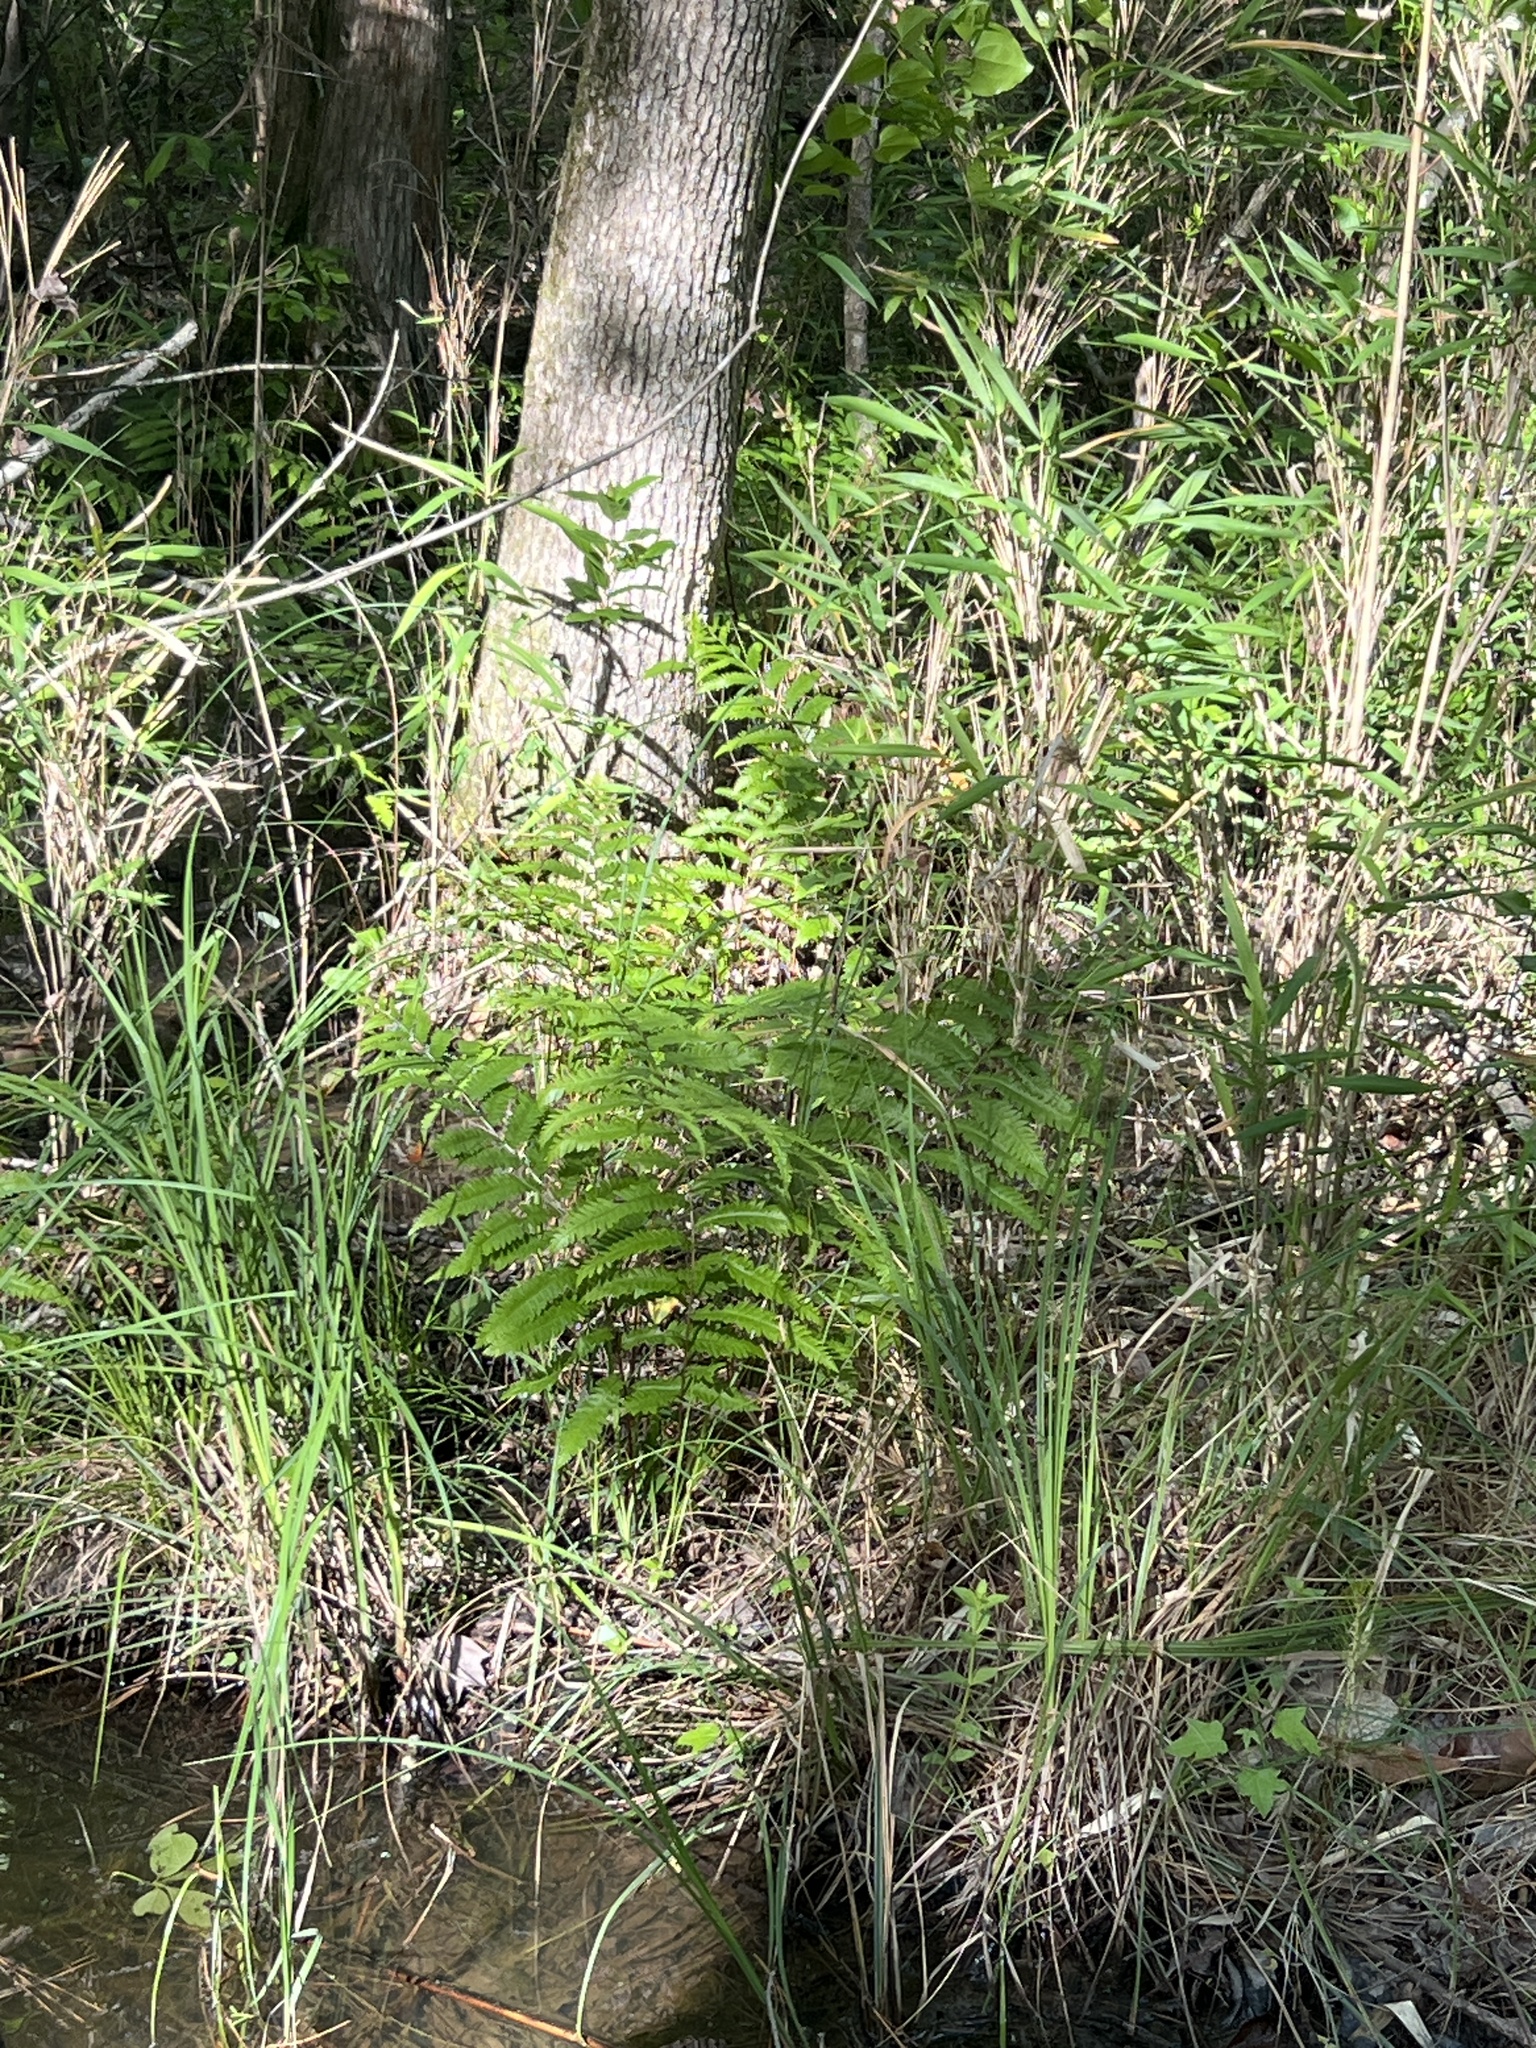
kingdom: Plantae
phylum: Tracheophyta
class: Polypodiopsida
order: Polypodiales
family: Blechnaceae
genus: Anchistea
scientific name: Anchistea virginica
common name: Virginia chain fern
